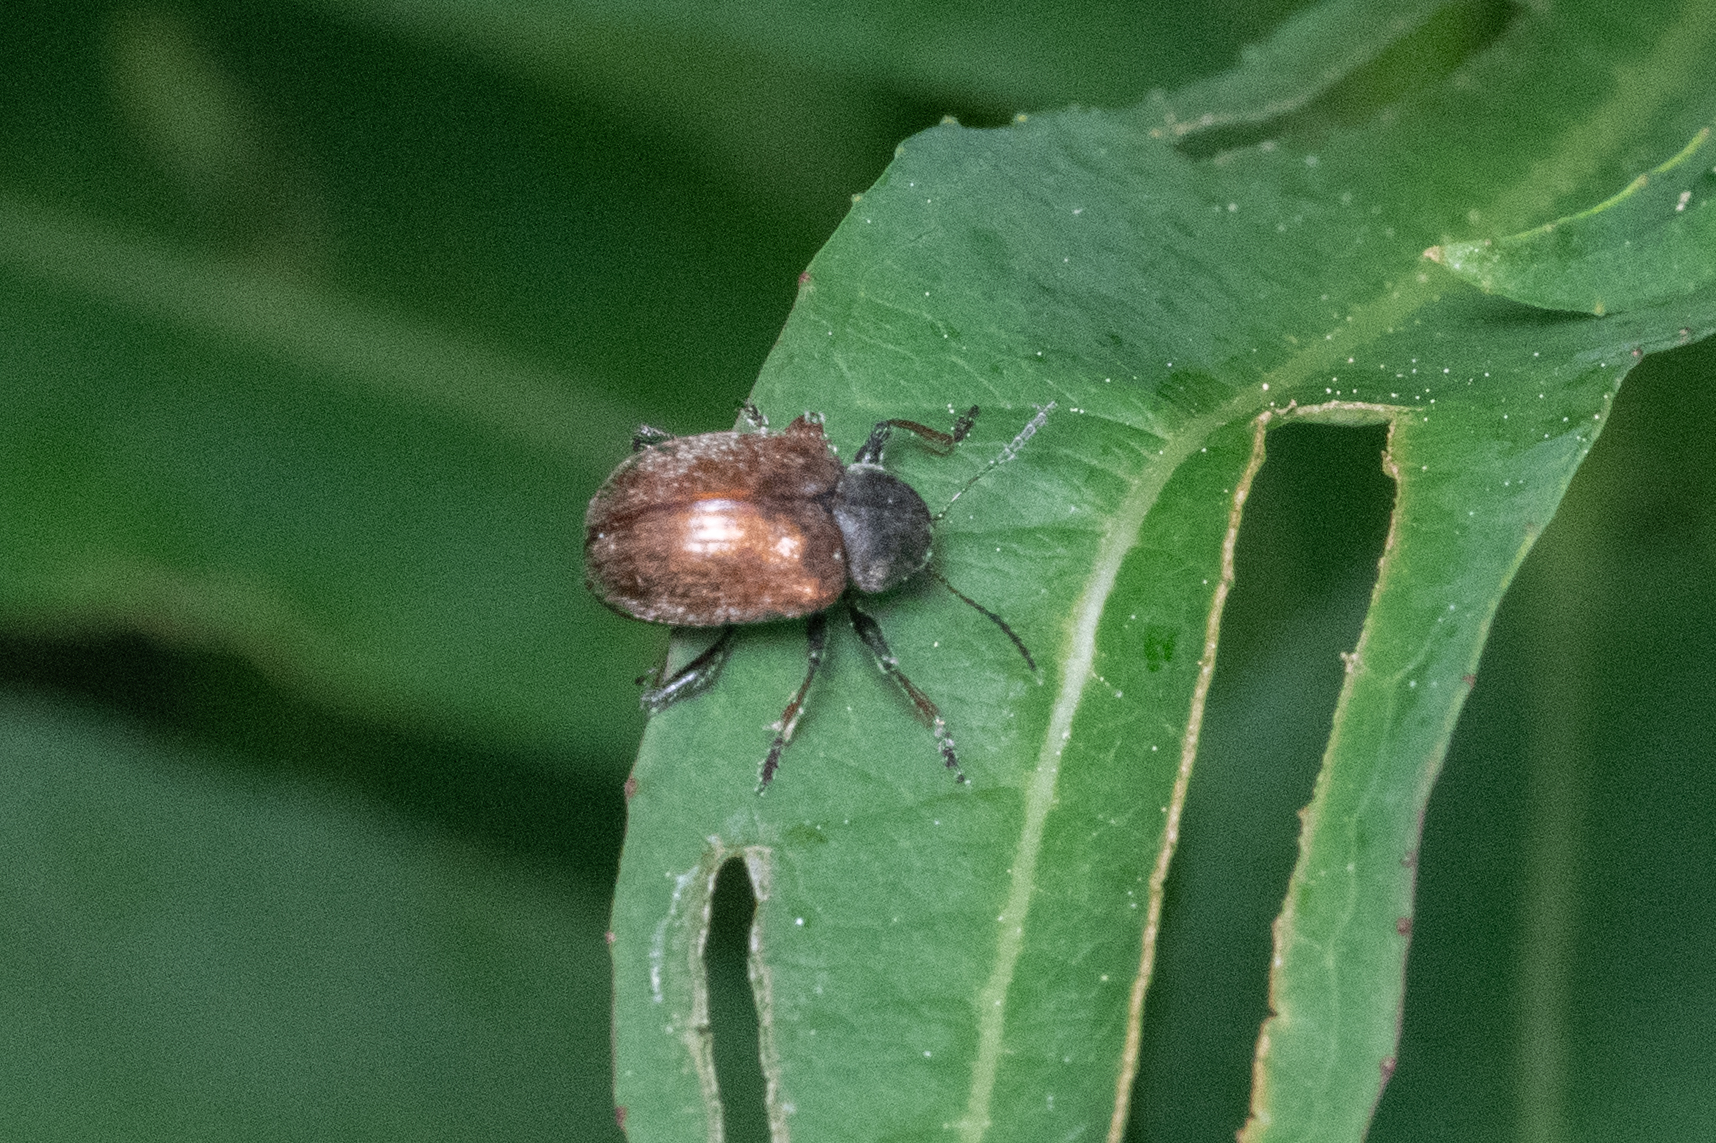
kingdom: Animalia
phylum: Arthropoda
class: Insecta
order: Coleoptera
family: Chrysomelidae
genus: Bromius
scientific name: Bromius obscurus
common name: Western grape rootworm
